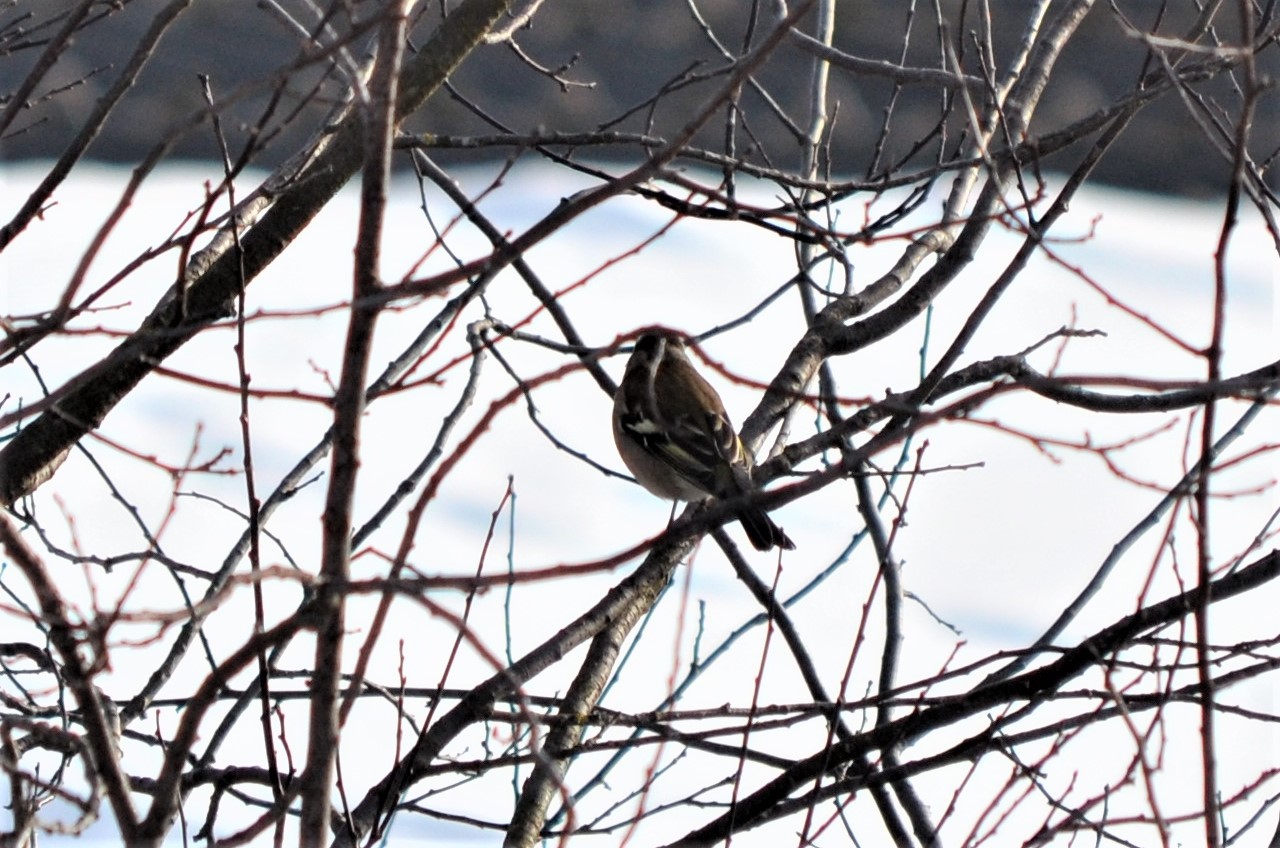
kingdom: Animalia
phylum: Chordata
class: Aves
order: Passeriformes
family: Fringillidae
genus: Fringilla
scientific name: Fringilla coelebs
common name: Common chaffinch
